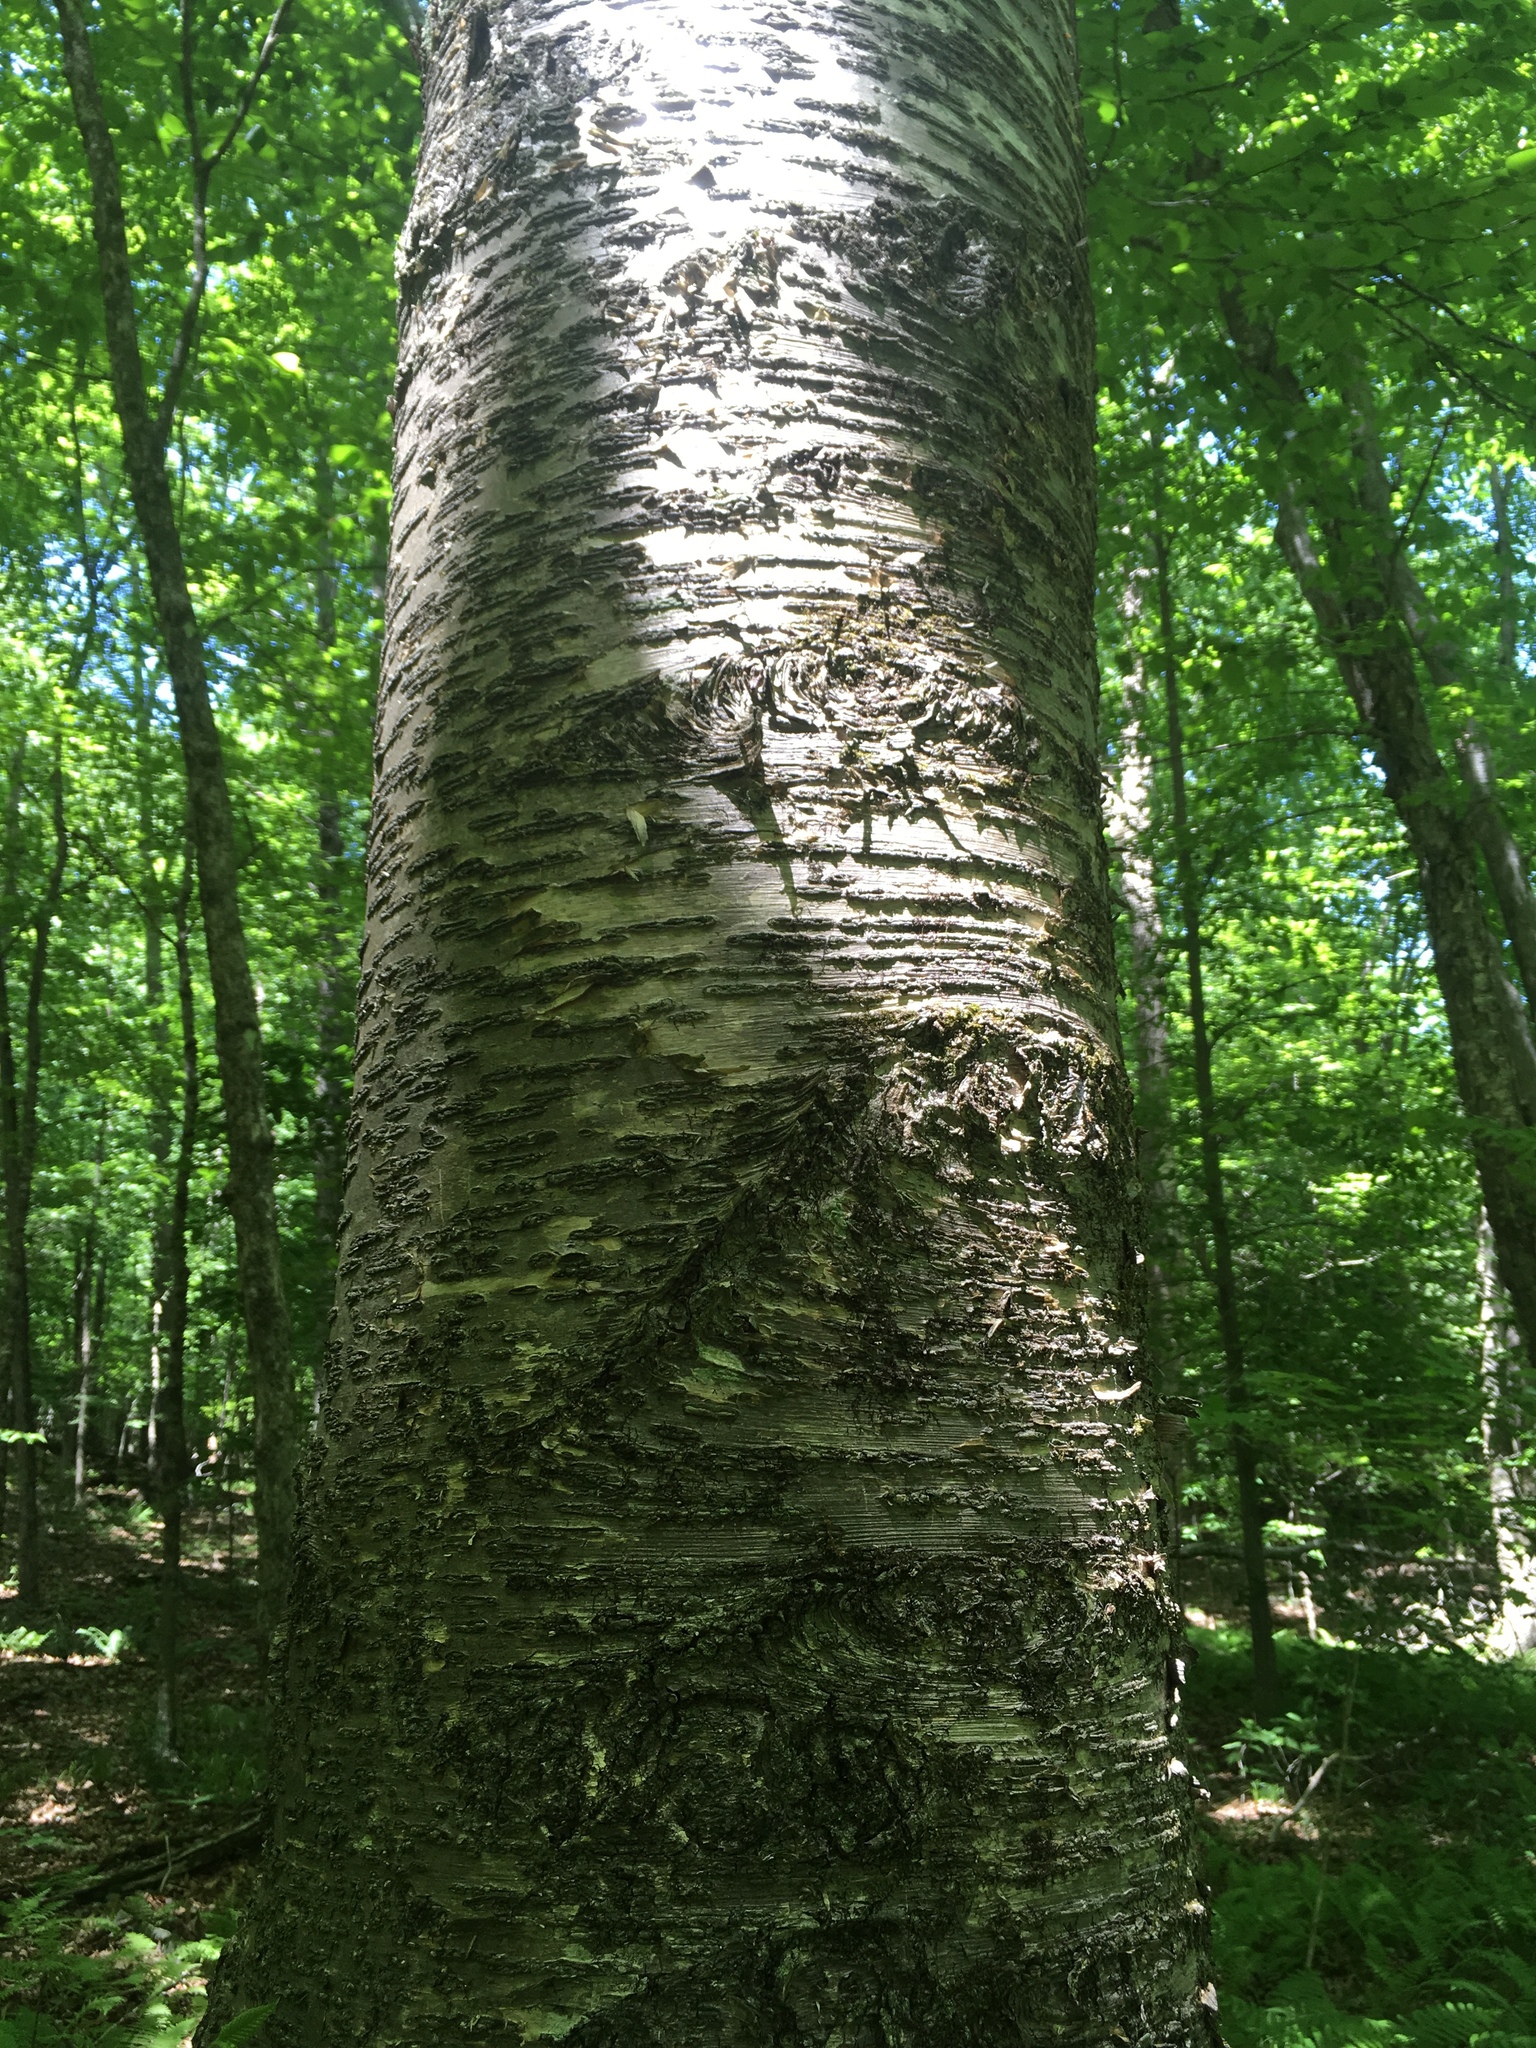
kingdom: Plantae
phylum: Tracheophyta
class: Magnoliopsida
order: Fagales
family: Betulaceae
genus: Betula
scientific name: Betula alleghaniensis
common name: Yellow birch
